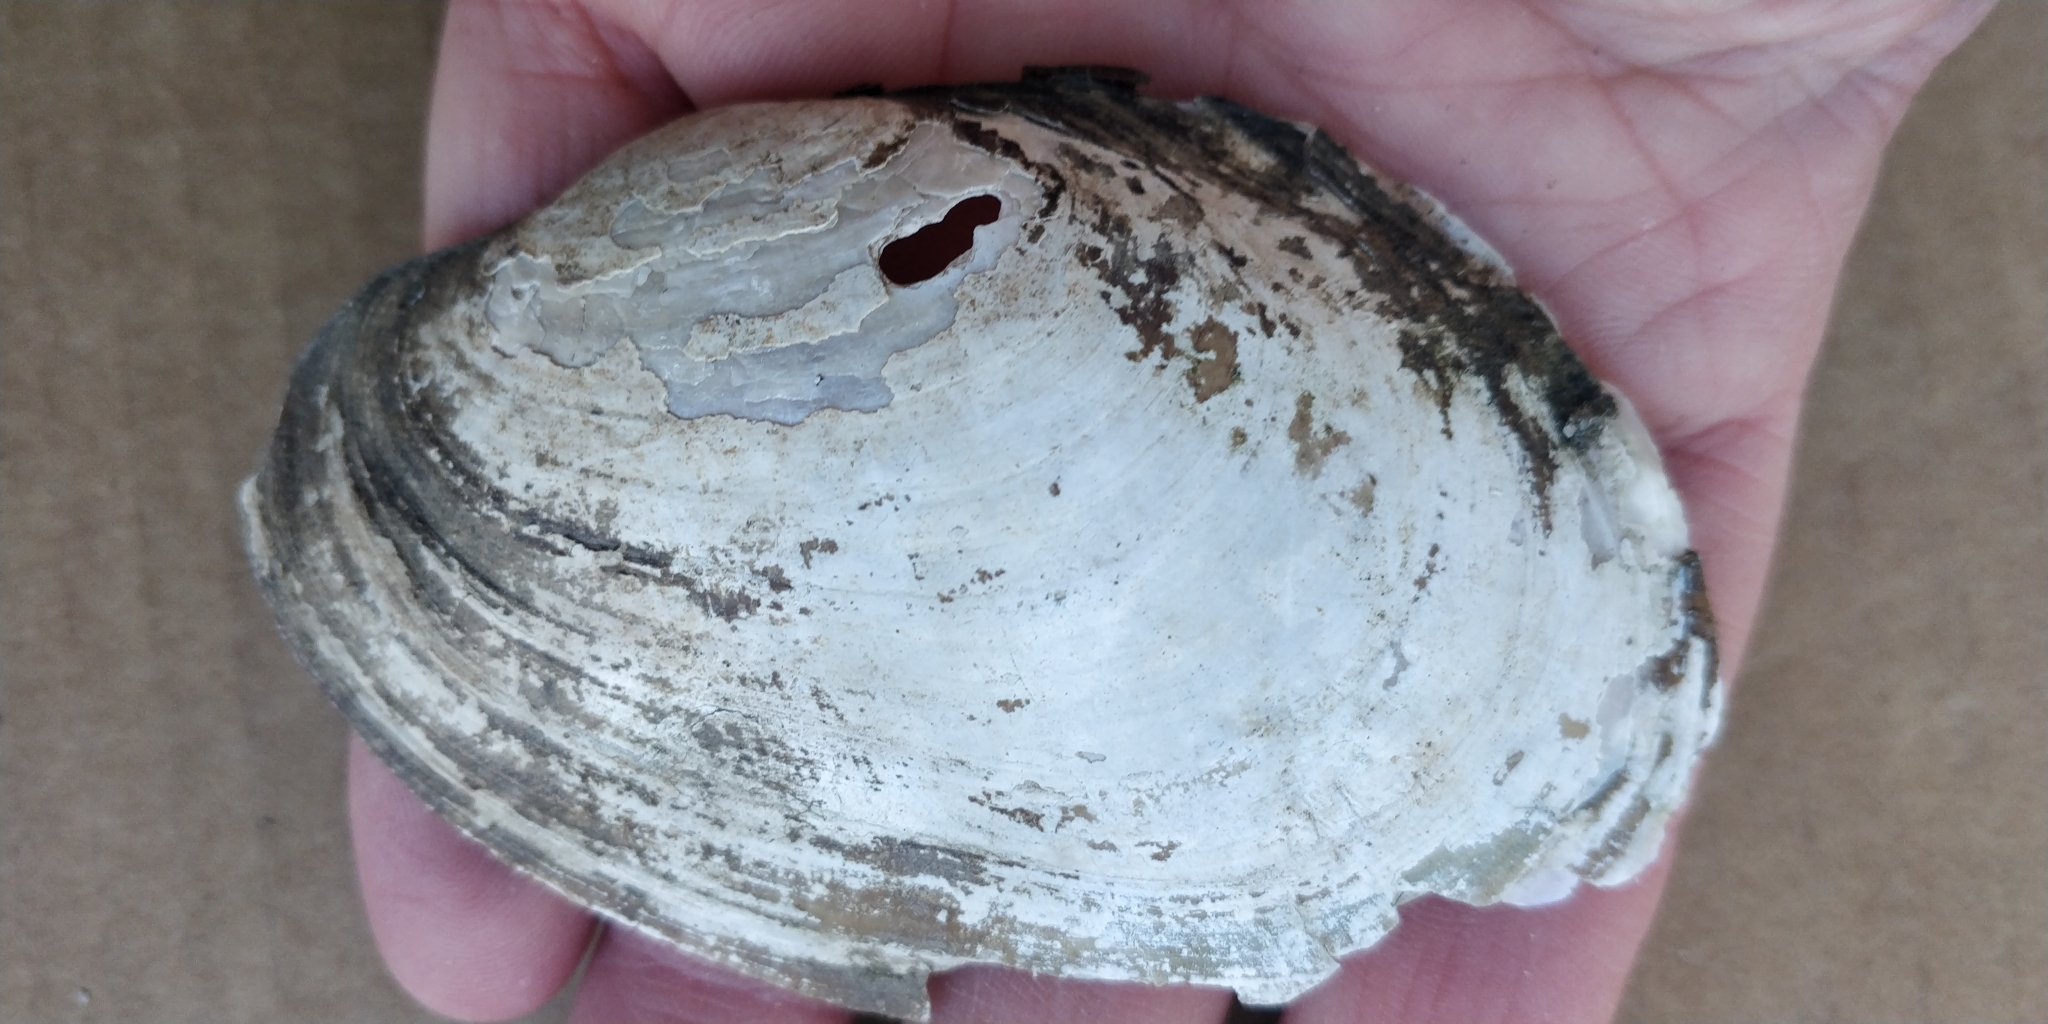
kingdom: Animalia
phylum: Mollusca
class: Bivalvia
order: Unionida
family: Unionidae
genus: Potamilus
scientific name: Potamilus fragilis
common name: Fragile papershell
